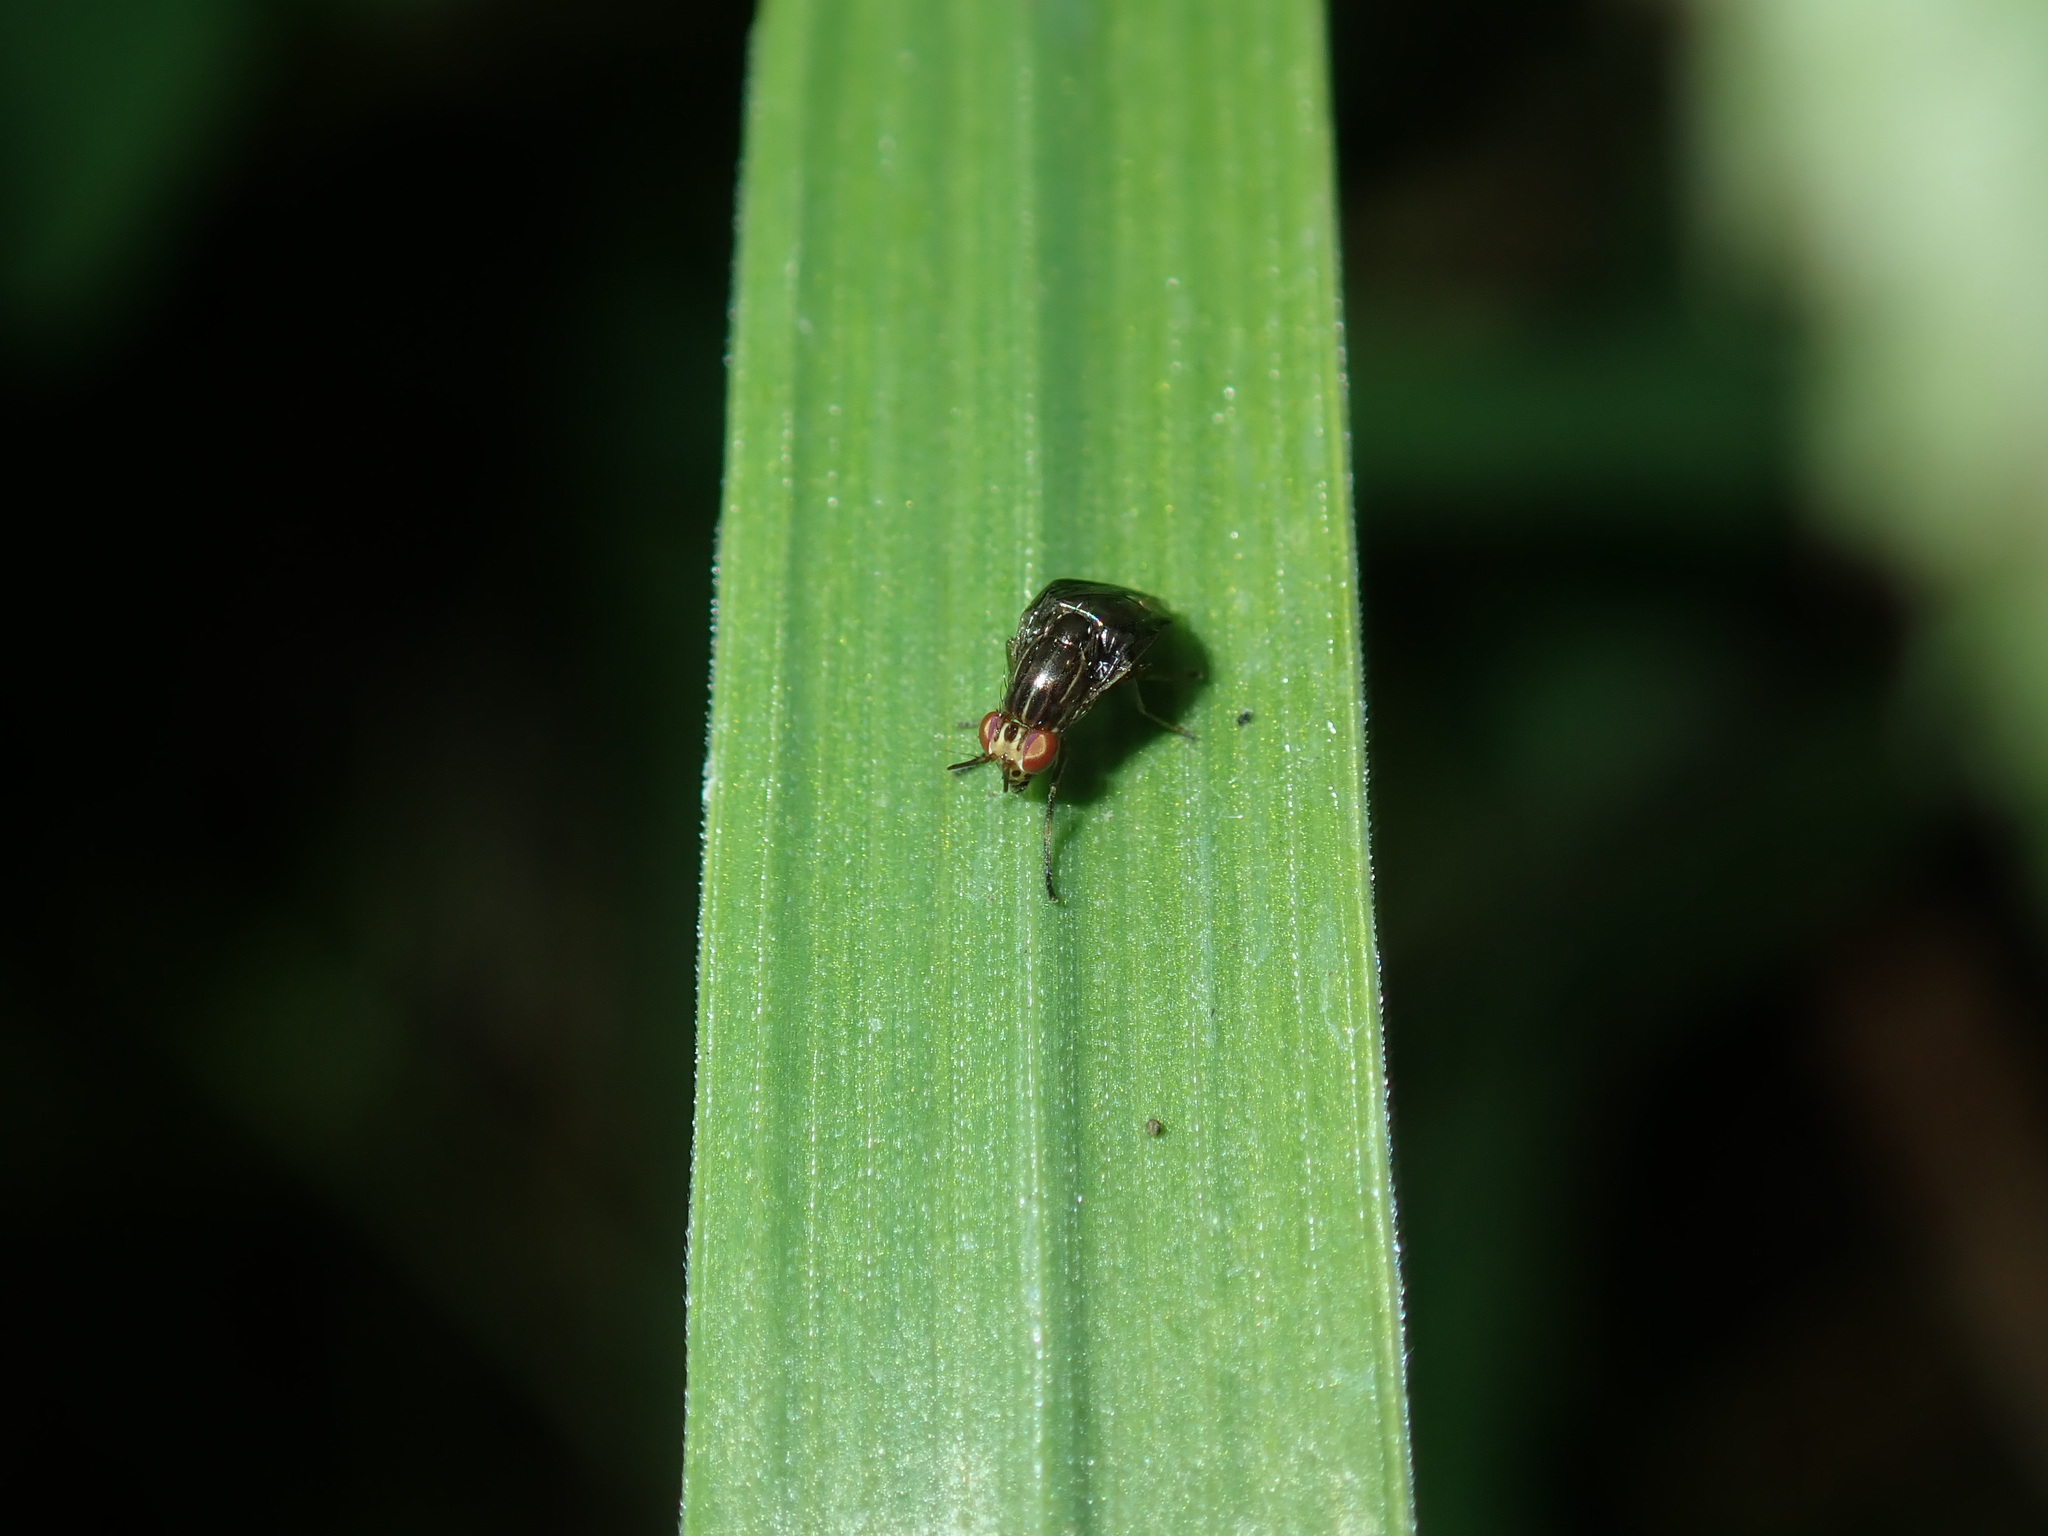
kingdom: Animalia
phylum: Arthropoda
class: Insecta
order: Diptera
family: Lauxaniidae
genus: Steganopsis
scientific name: Steganopsis melanogaster
